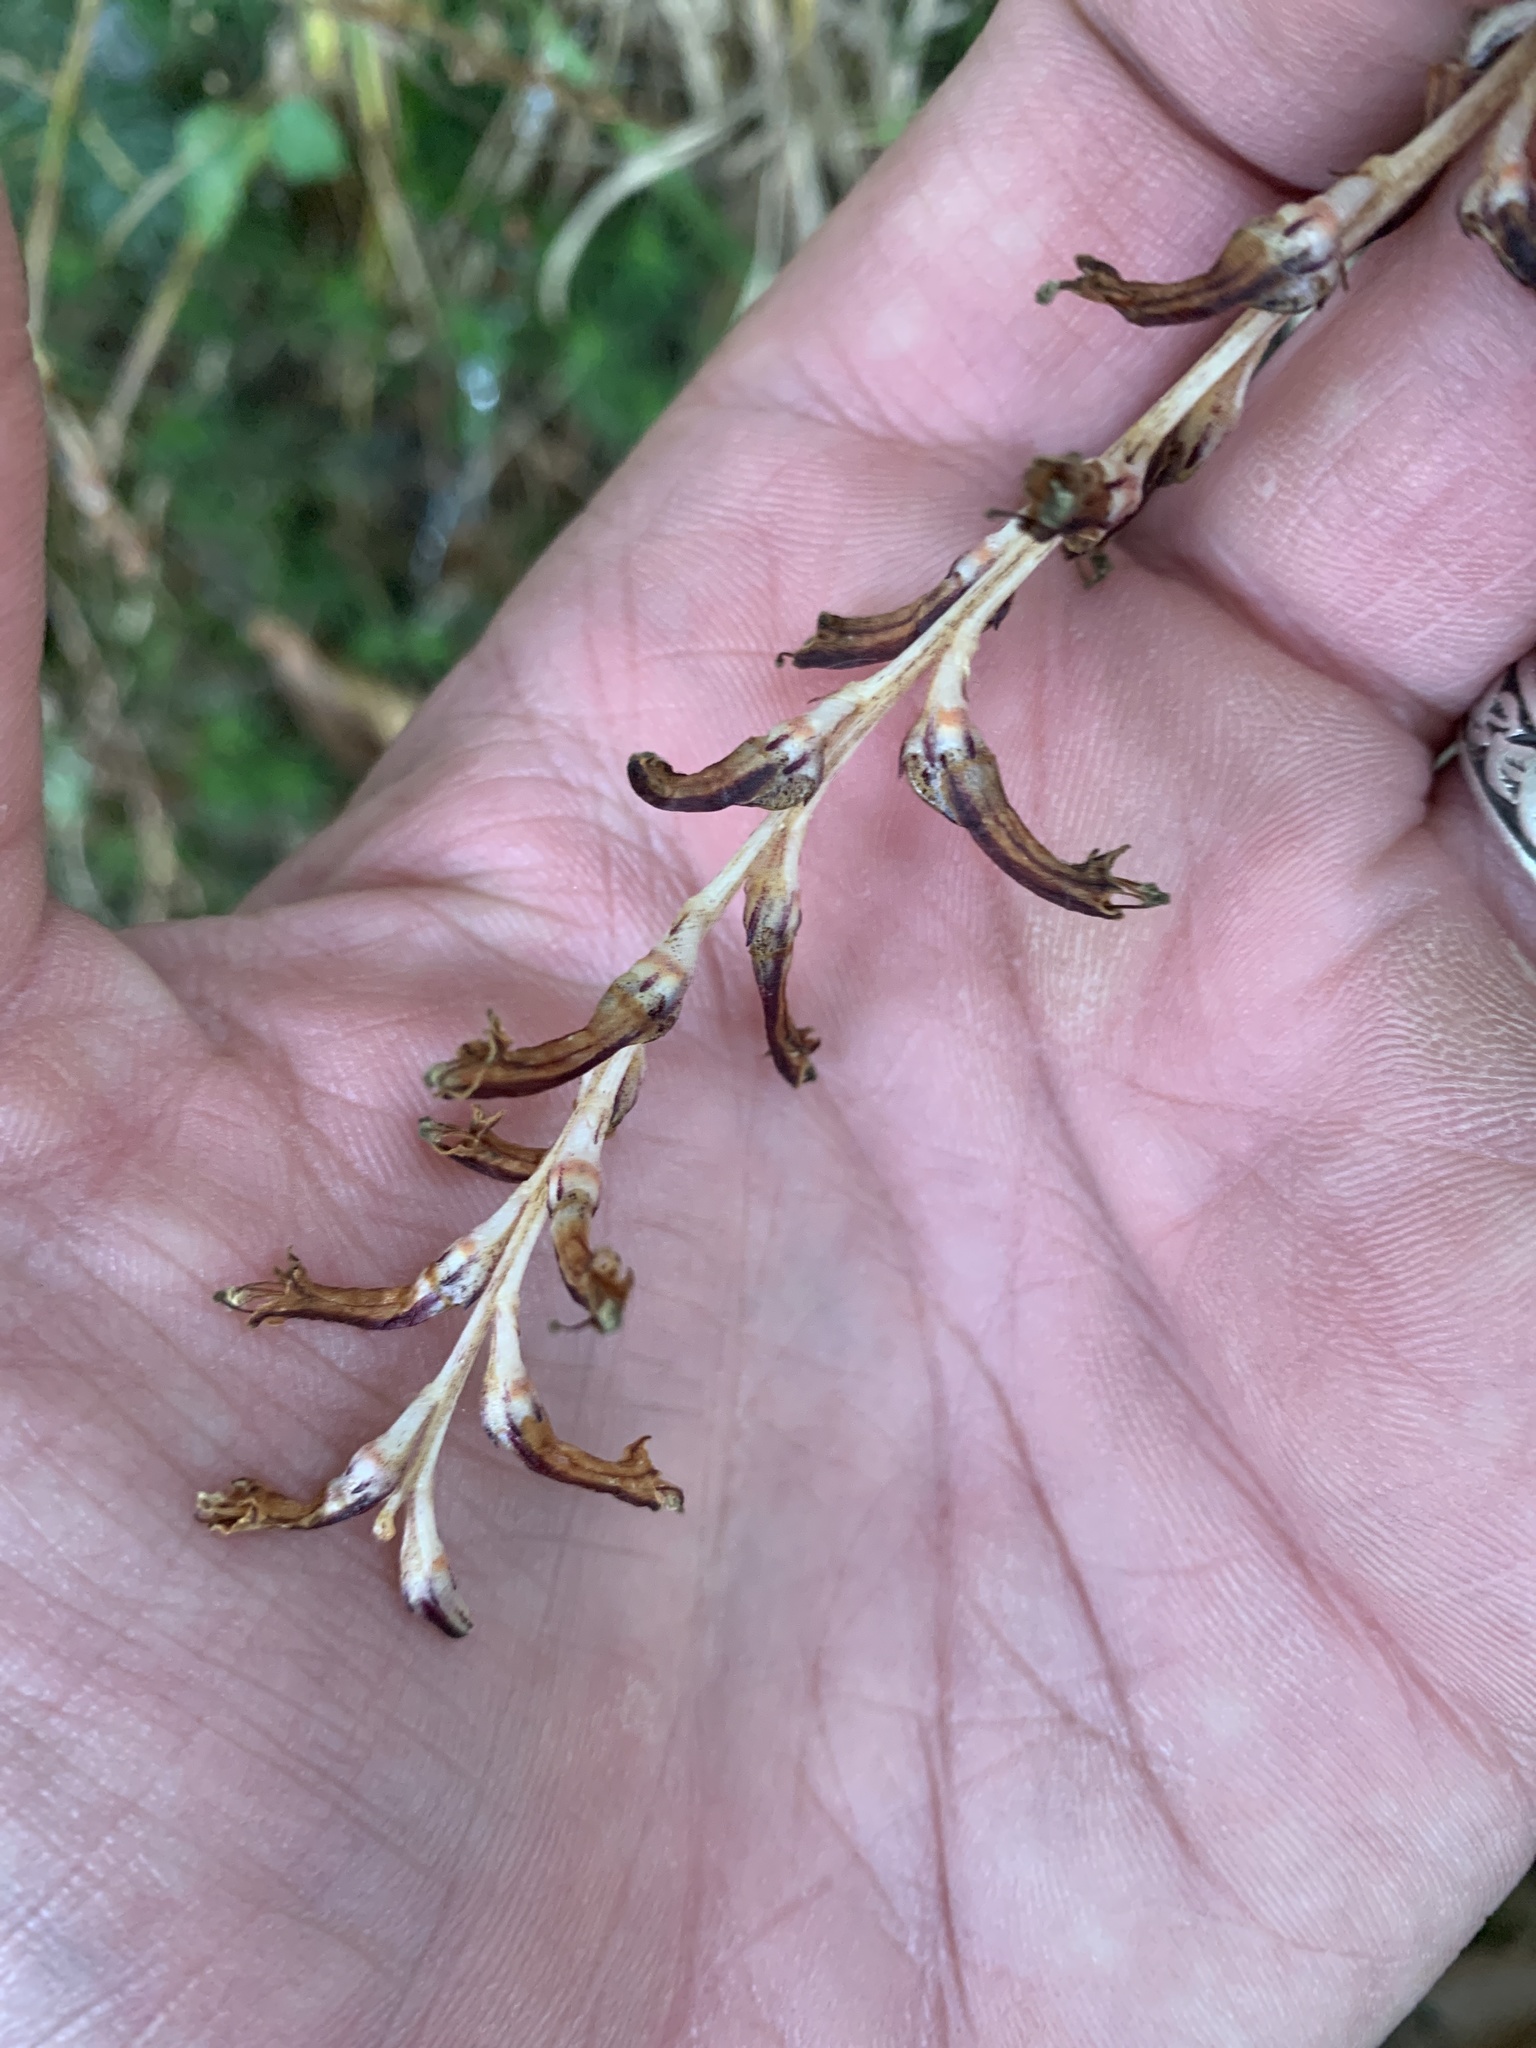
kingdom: Plantae
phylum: Tracheophyta
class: Magnoliopsida
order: Lamiales
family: Orobanchaceae
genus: Epifagus
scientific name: Epifagus virginiana
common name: Beechdrops
